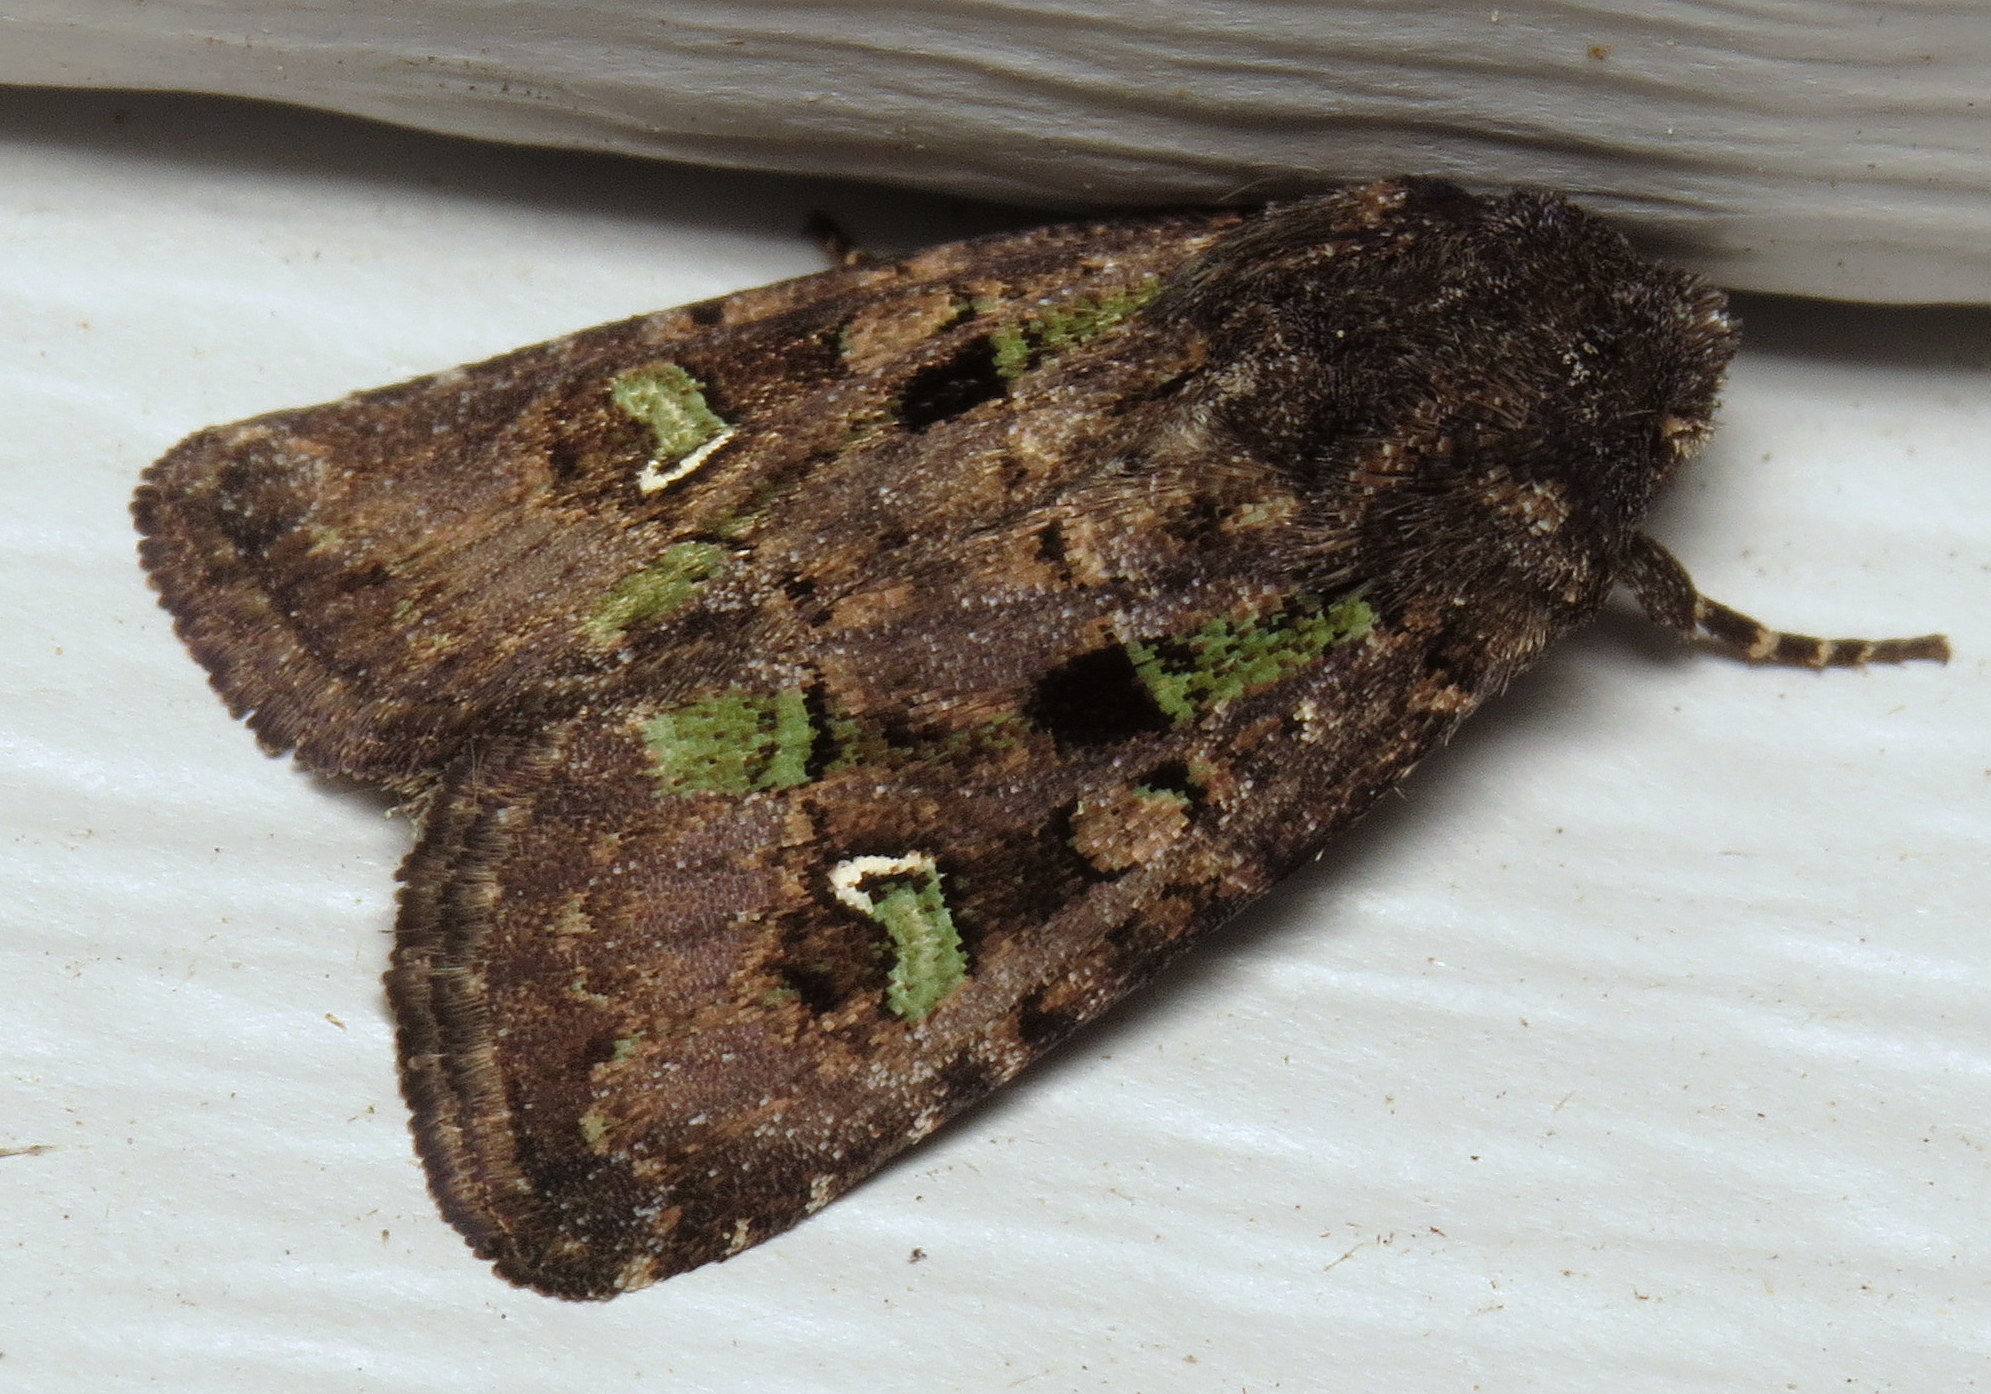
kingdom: Animalia
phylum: Arthropoda
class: Insecta
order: Lepidoptera
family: Noctuidae
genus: Lacinipolia
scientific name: Lacinipolia renigera
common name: Kidney-spotted minor
